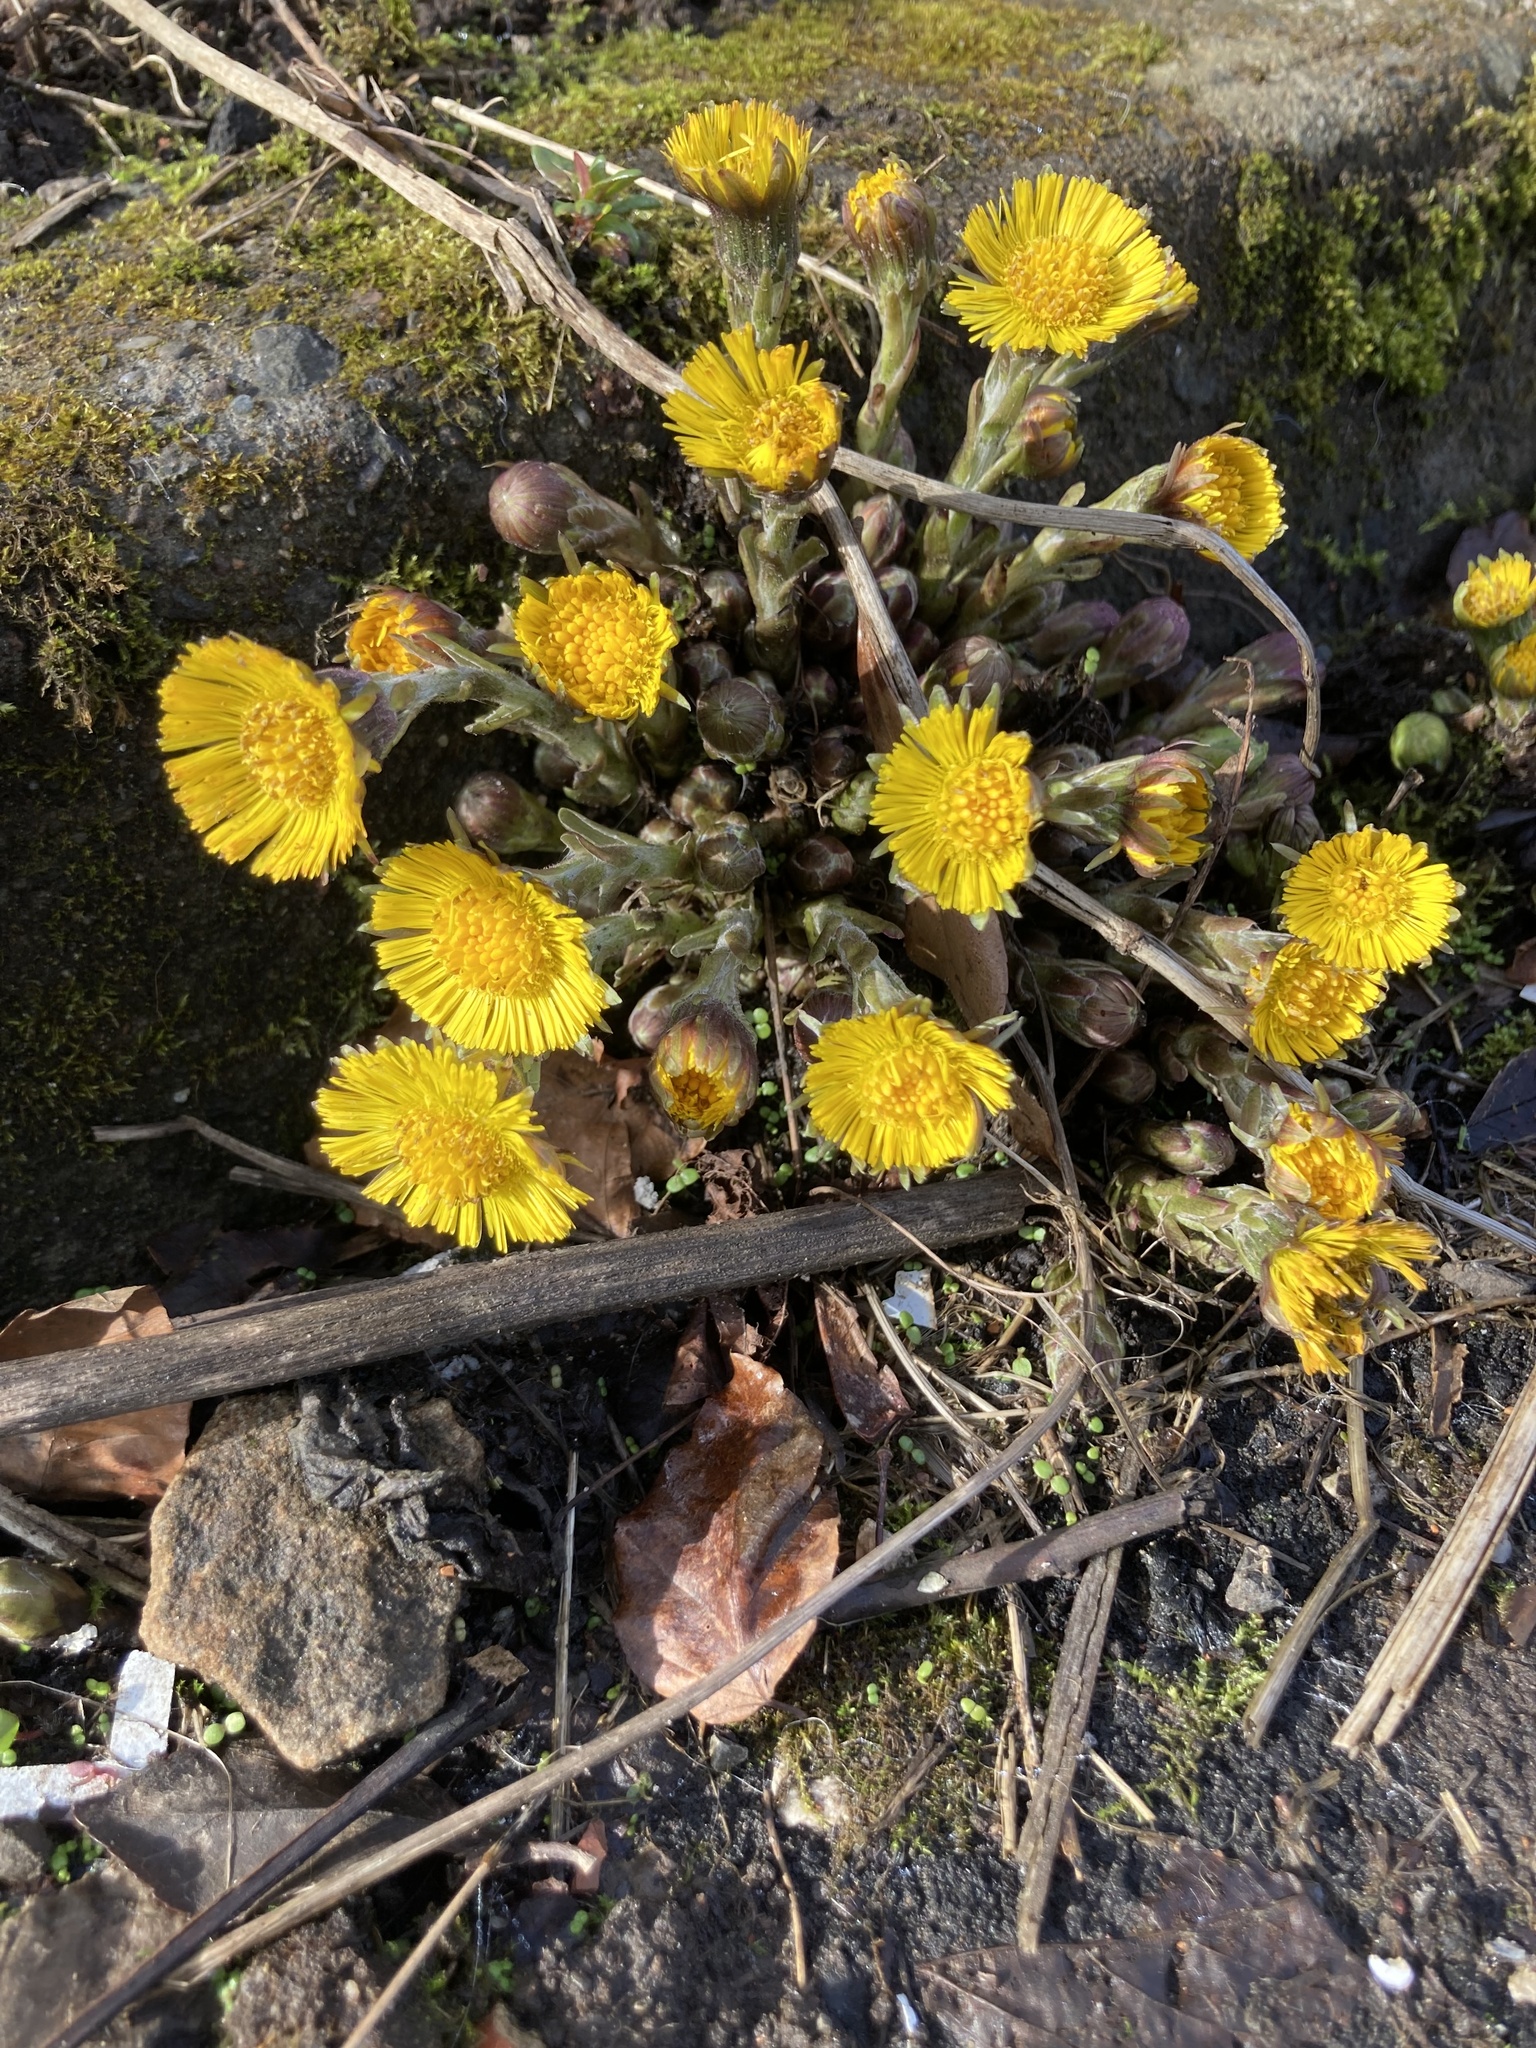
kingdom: Plantae
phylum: Tracheophyta
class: Magnoliopsida
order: Asterales
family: Asteraceae
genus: Tussilago
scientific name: Tussilago farfara
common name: Coltsfoot
